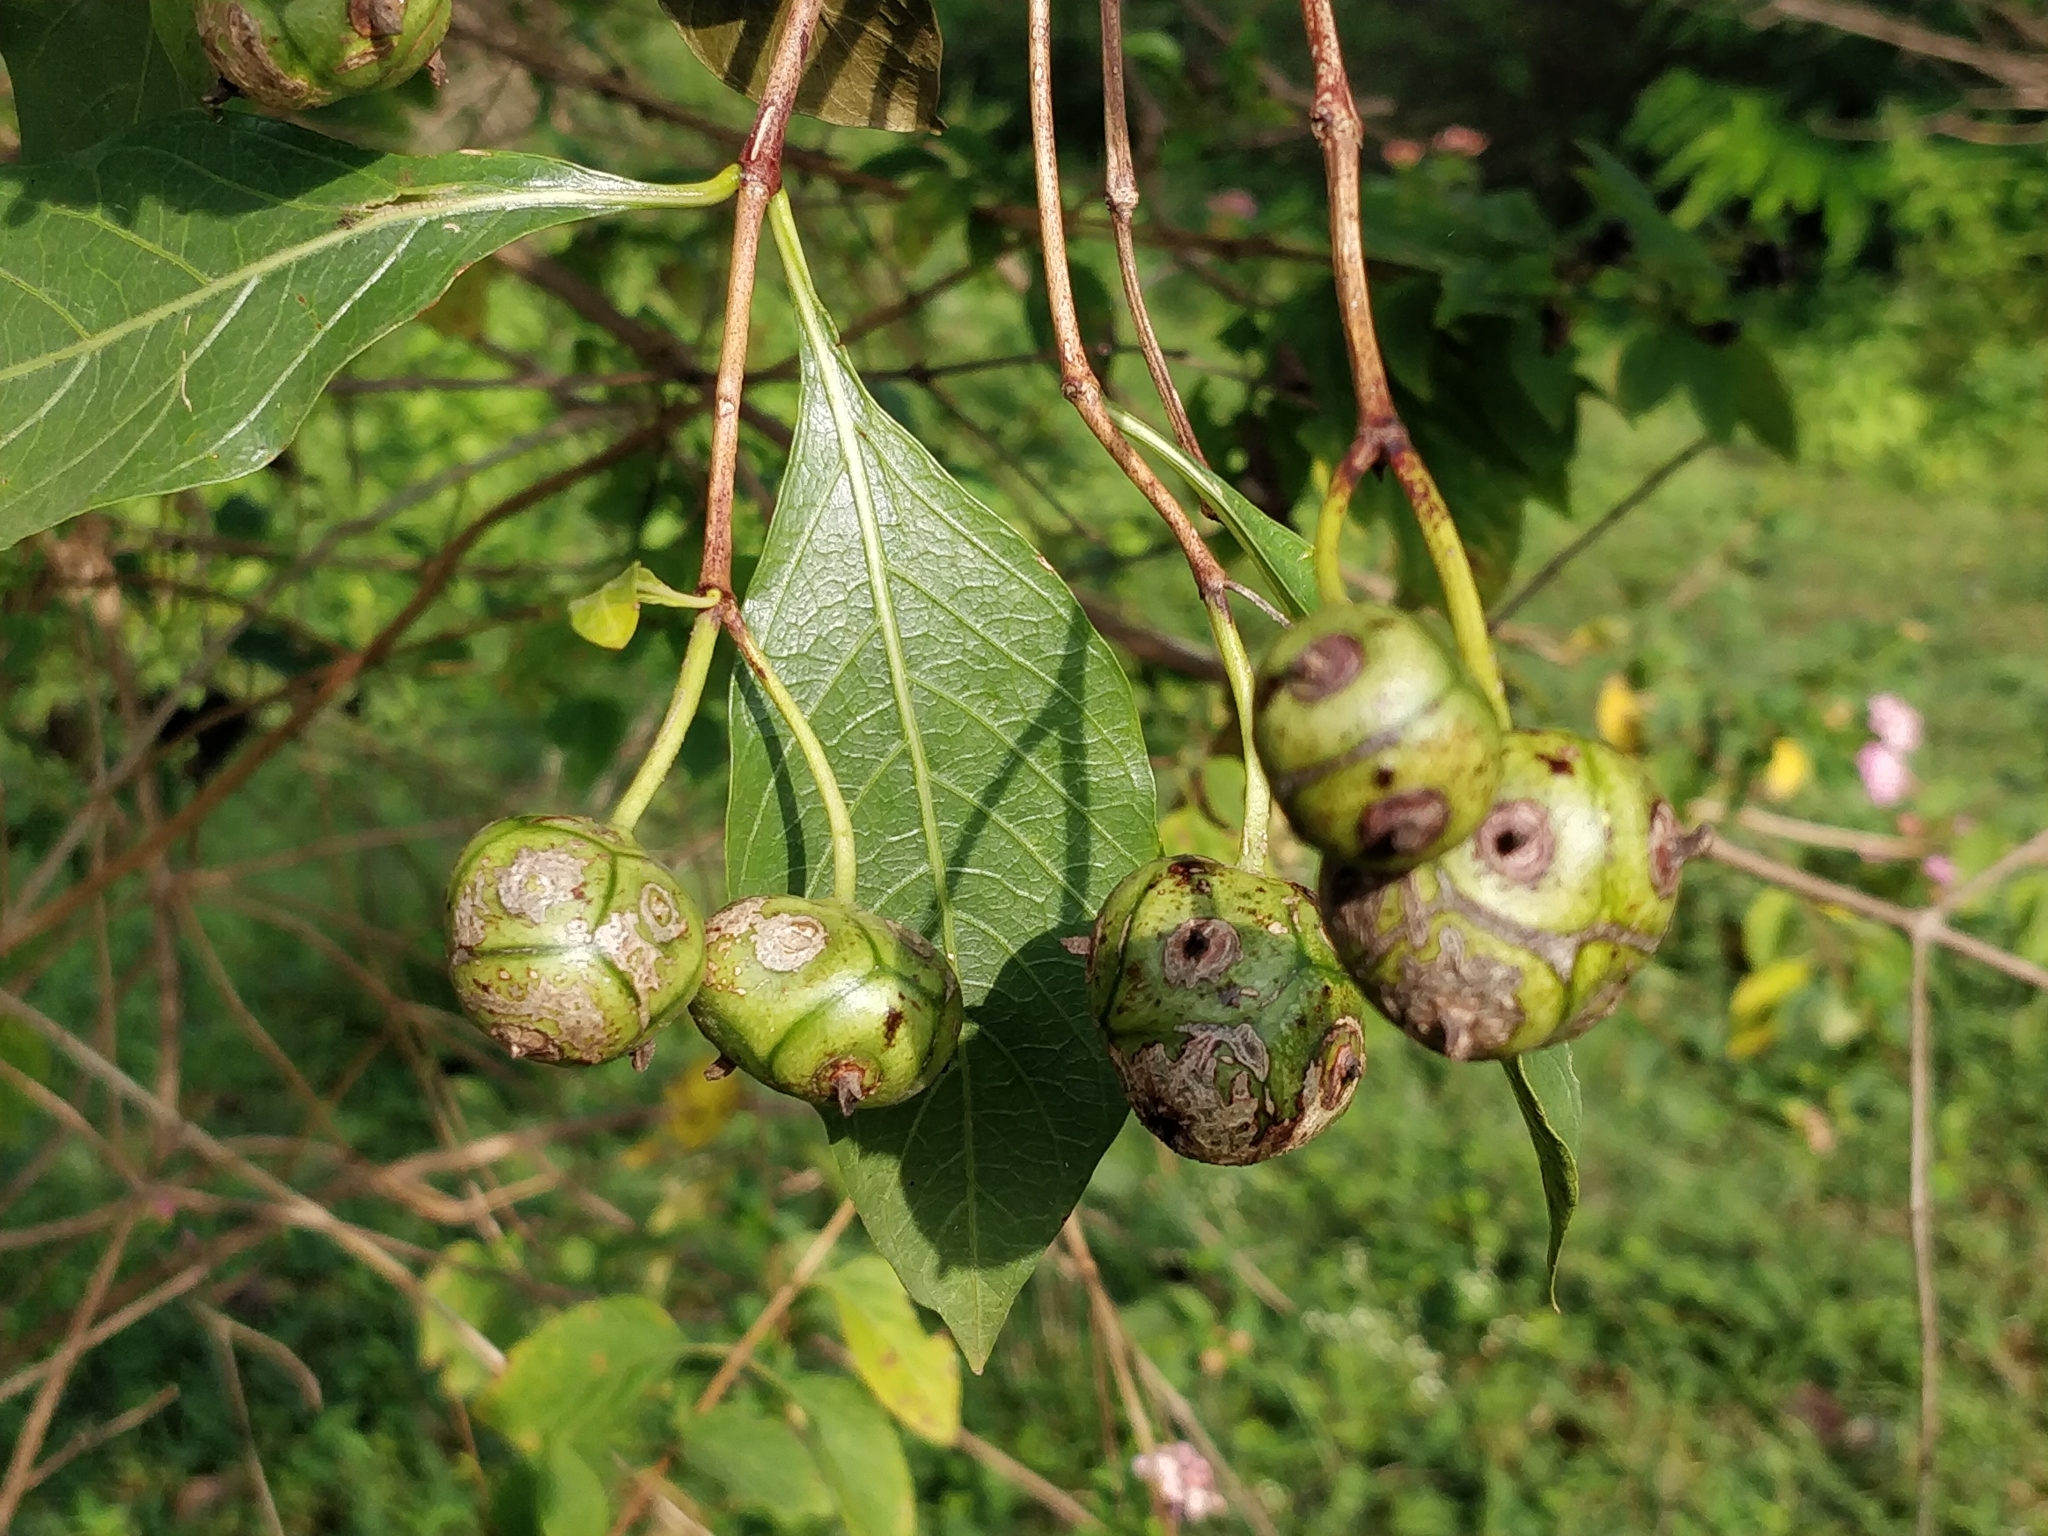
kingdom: Plantae
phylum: Tracheophyta
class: Magnoliopsida
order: Gentianales
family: Rubiaceae
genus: Morinda
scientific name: Morinda coreia
